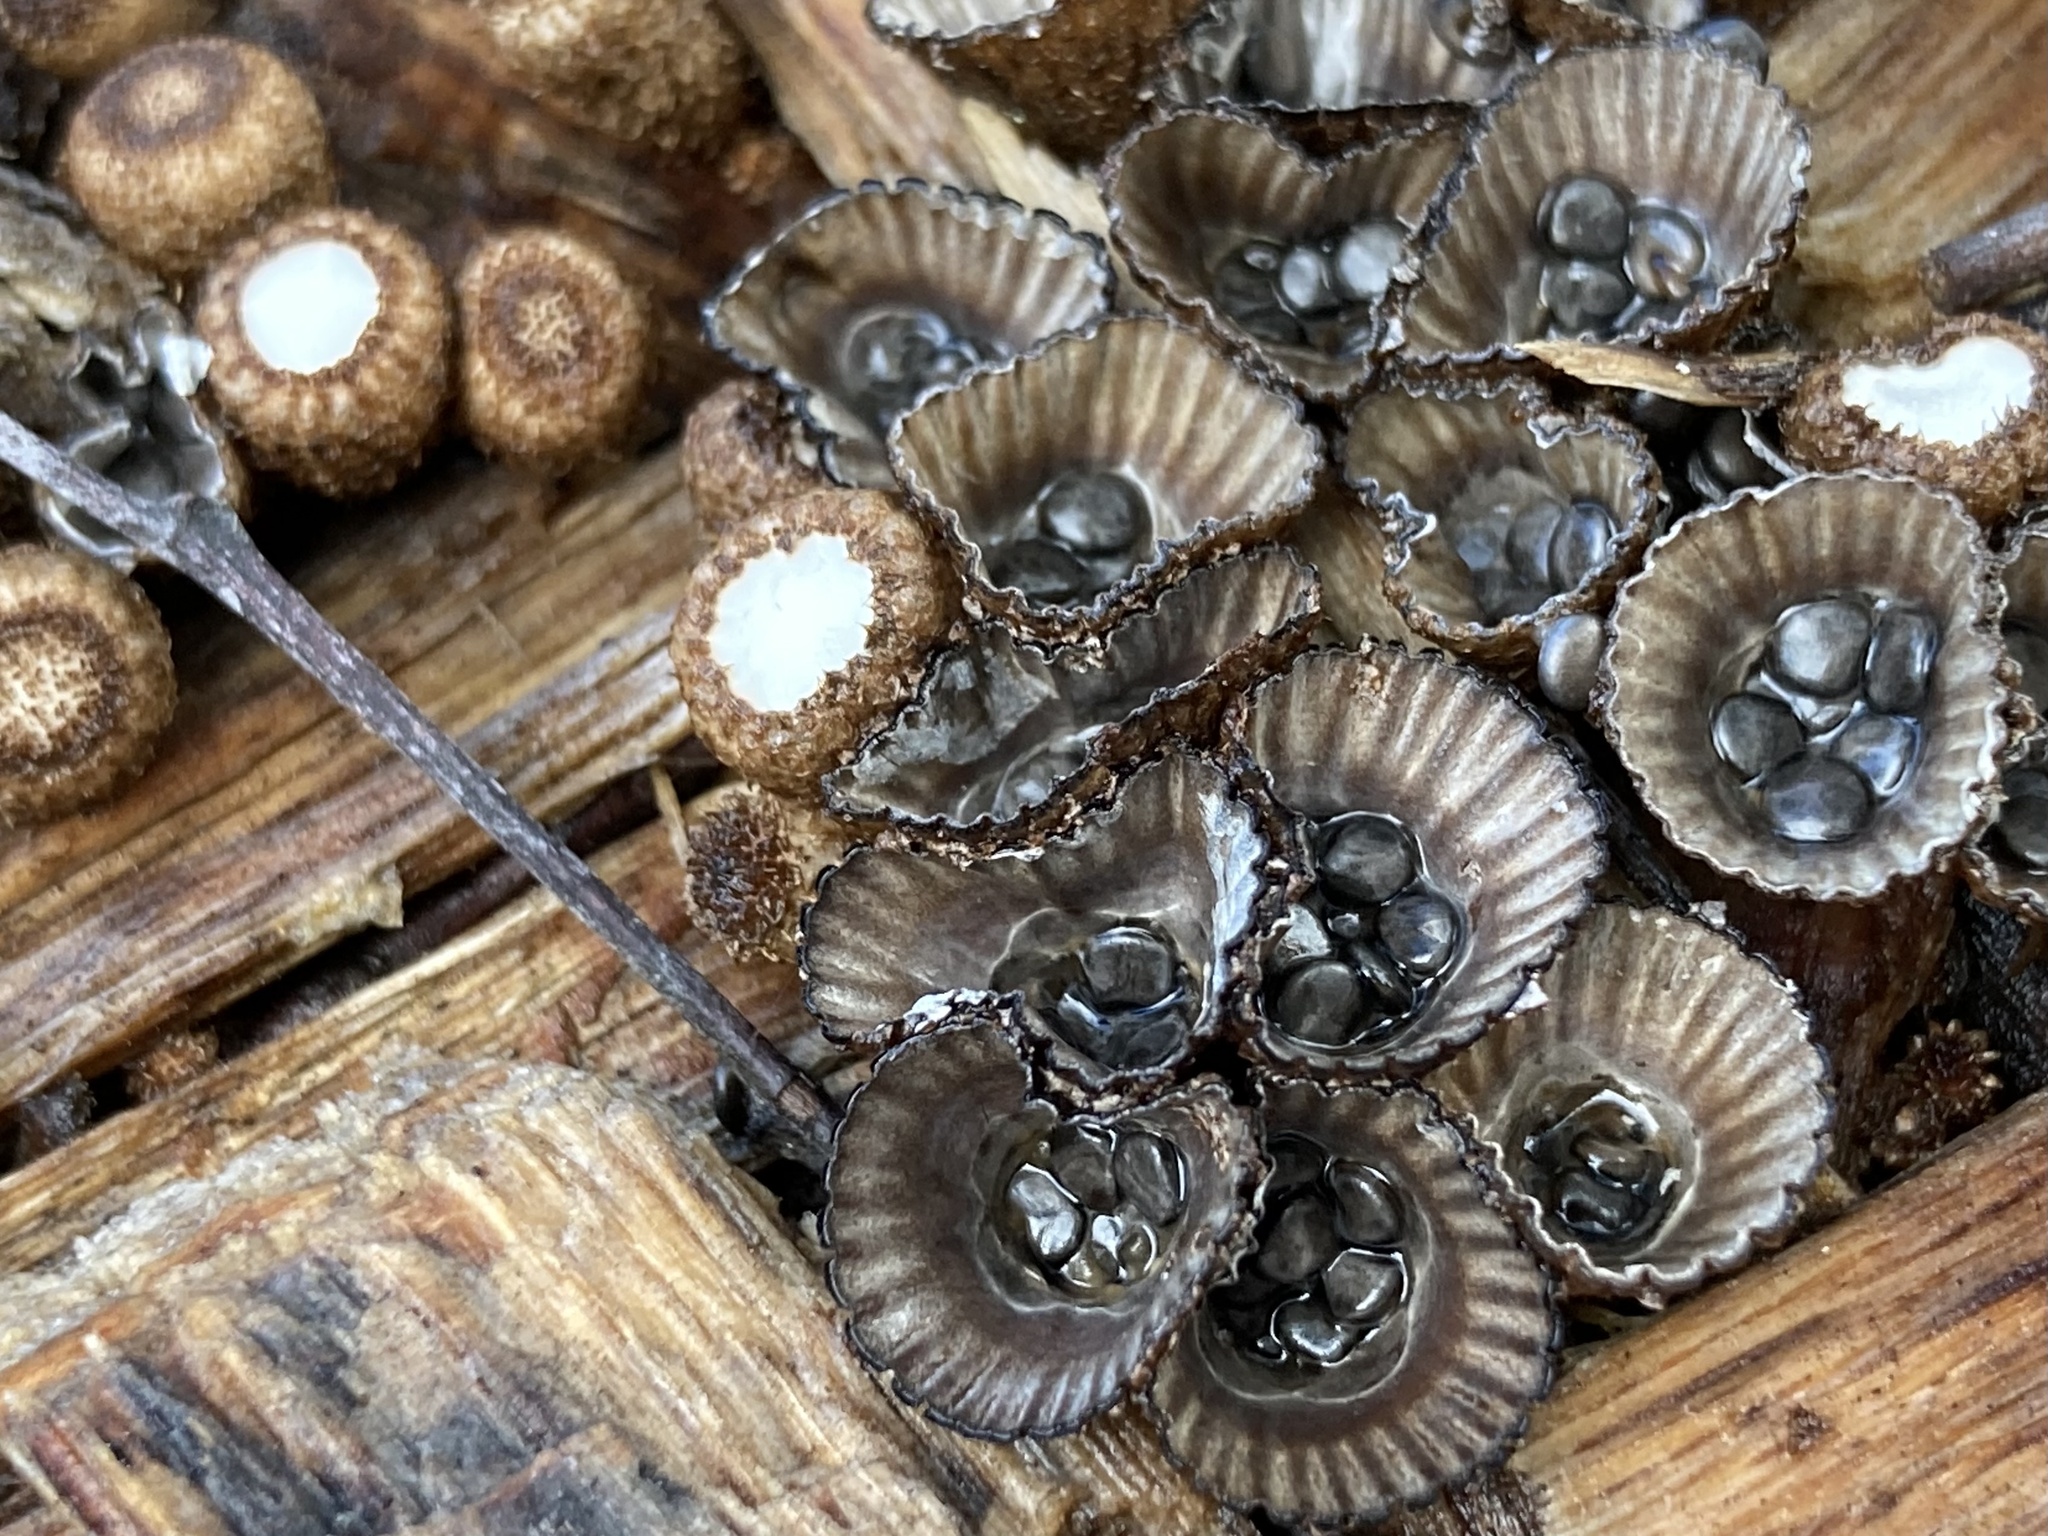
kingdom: Fungi
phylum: Basidiomycota
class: Agaricomycetes
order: Agaricales
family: Agaricaceae
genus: Cyathus
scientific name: Cyathus striatus
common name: Fluted bird's nest
